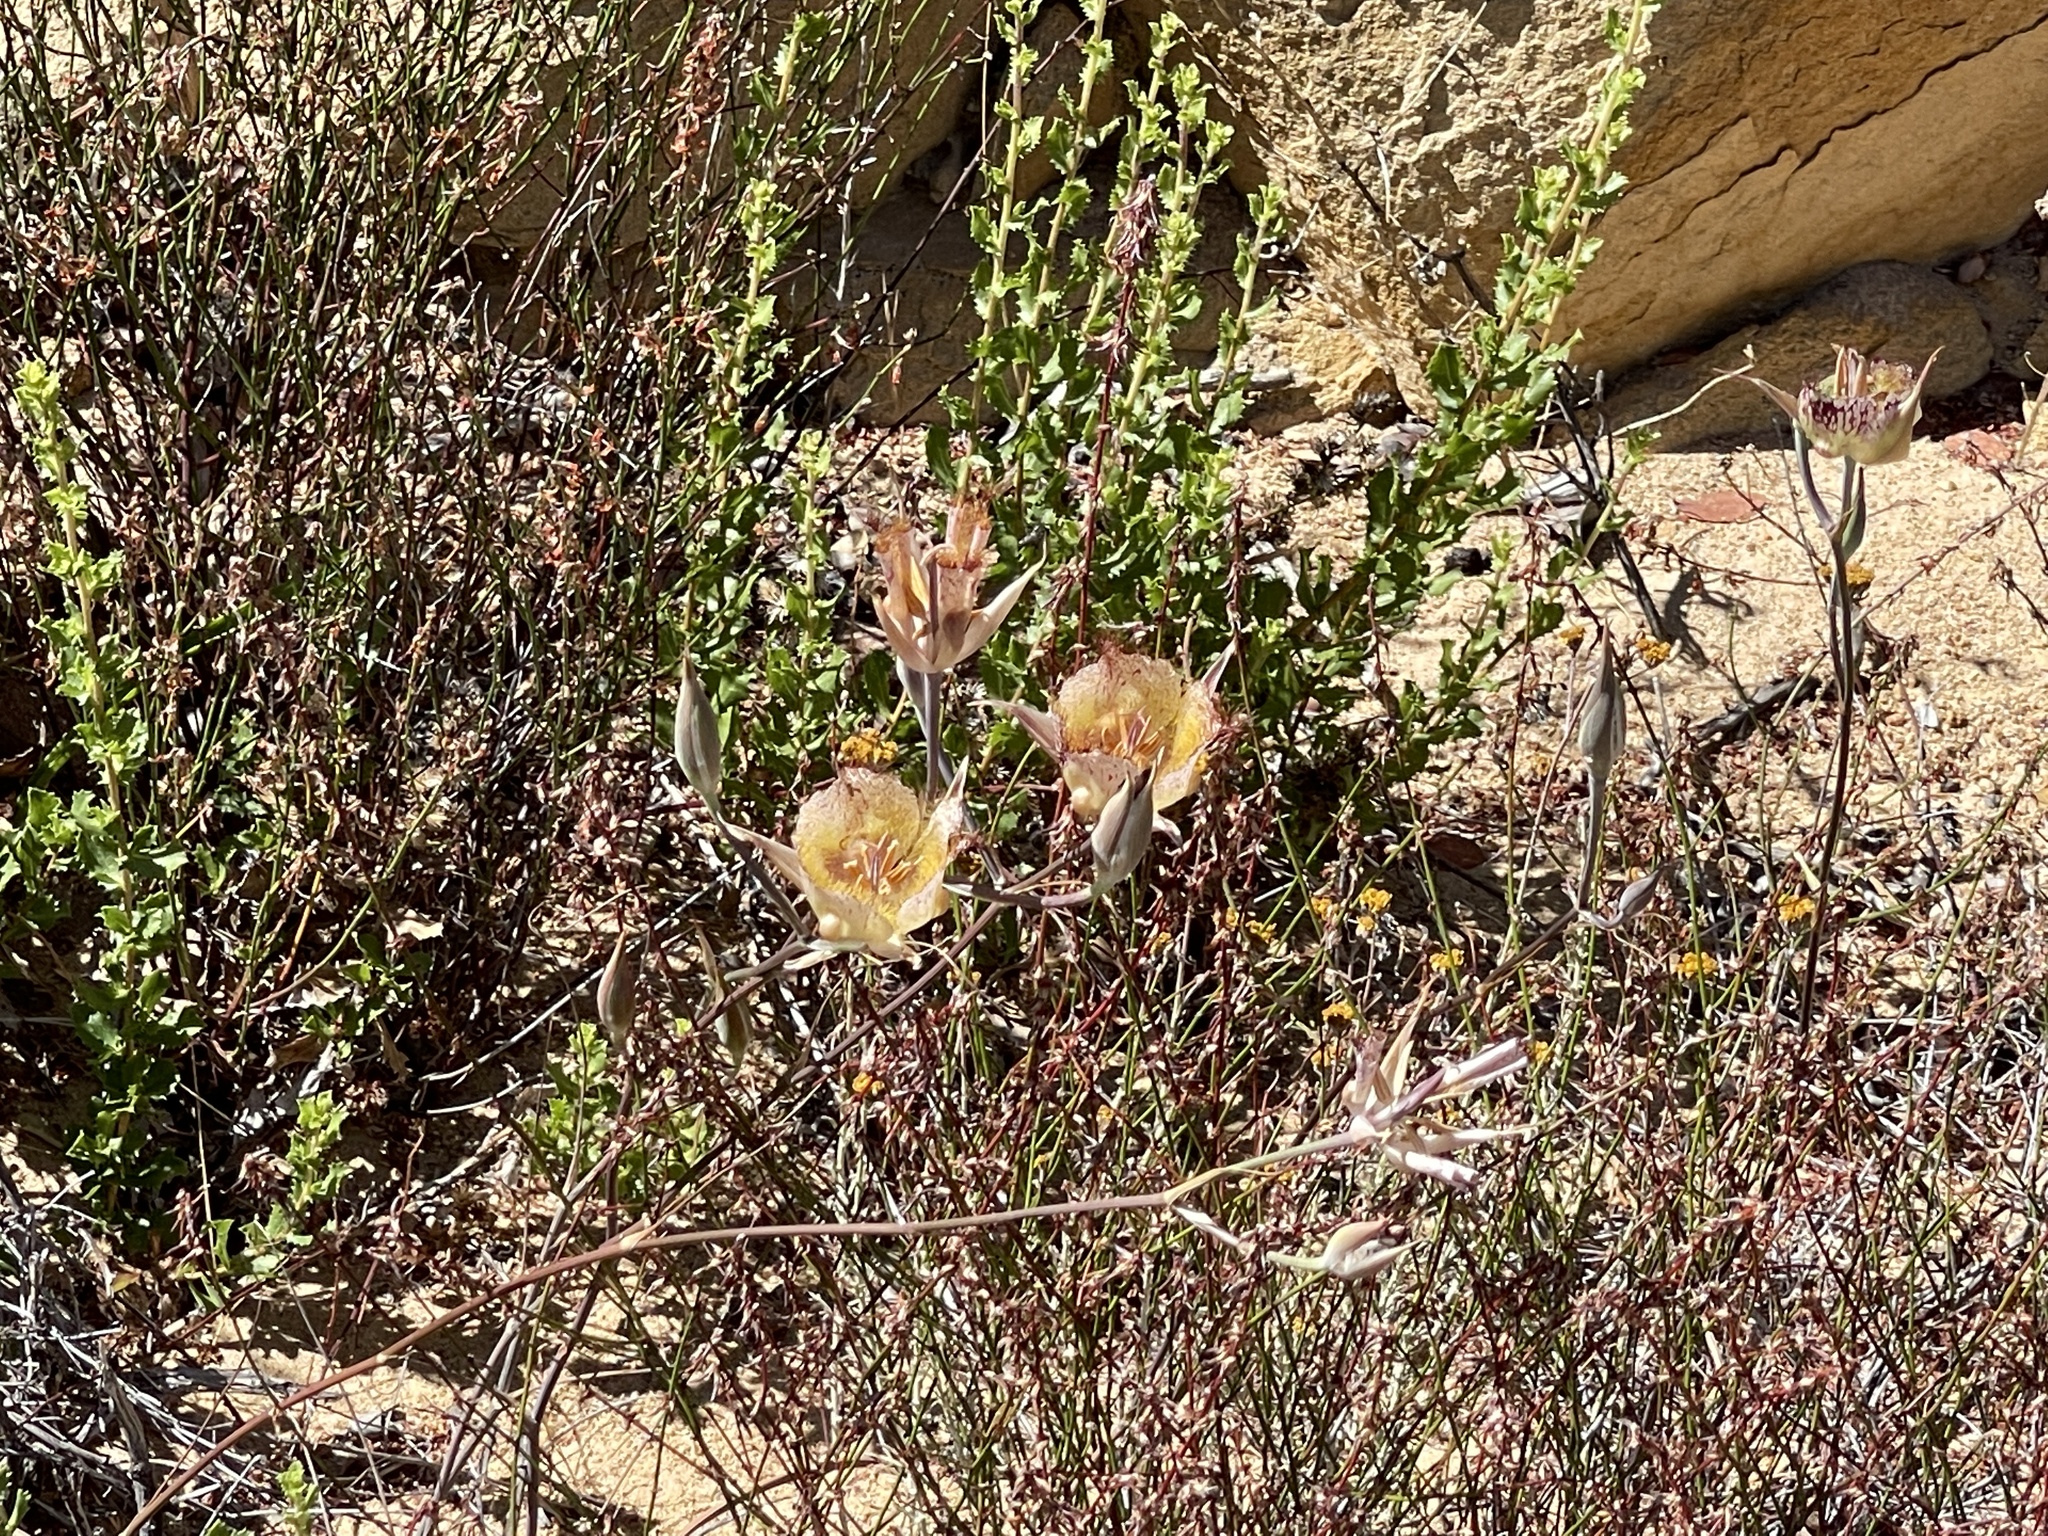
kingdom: Plantae
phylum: Tracheophyta
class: Liliopsida
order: Liliales
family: Liliaceae
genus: Calochortus
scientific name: Calochortus fimbriatus
